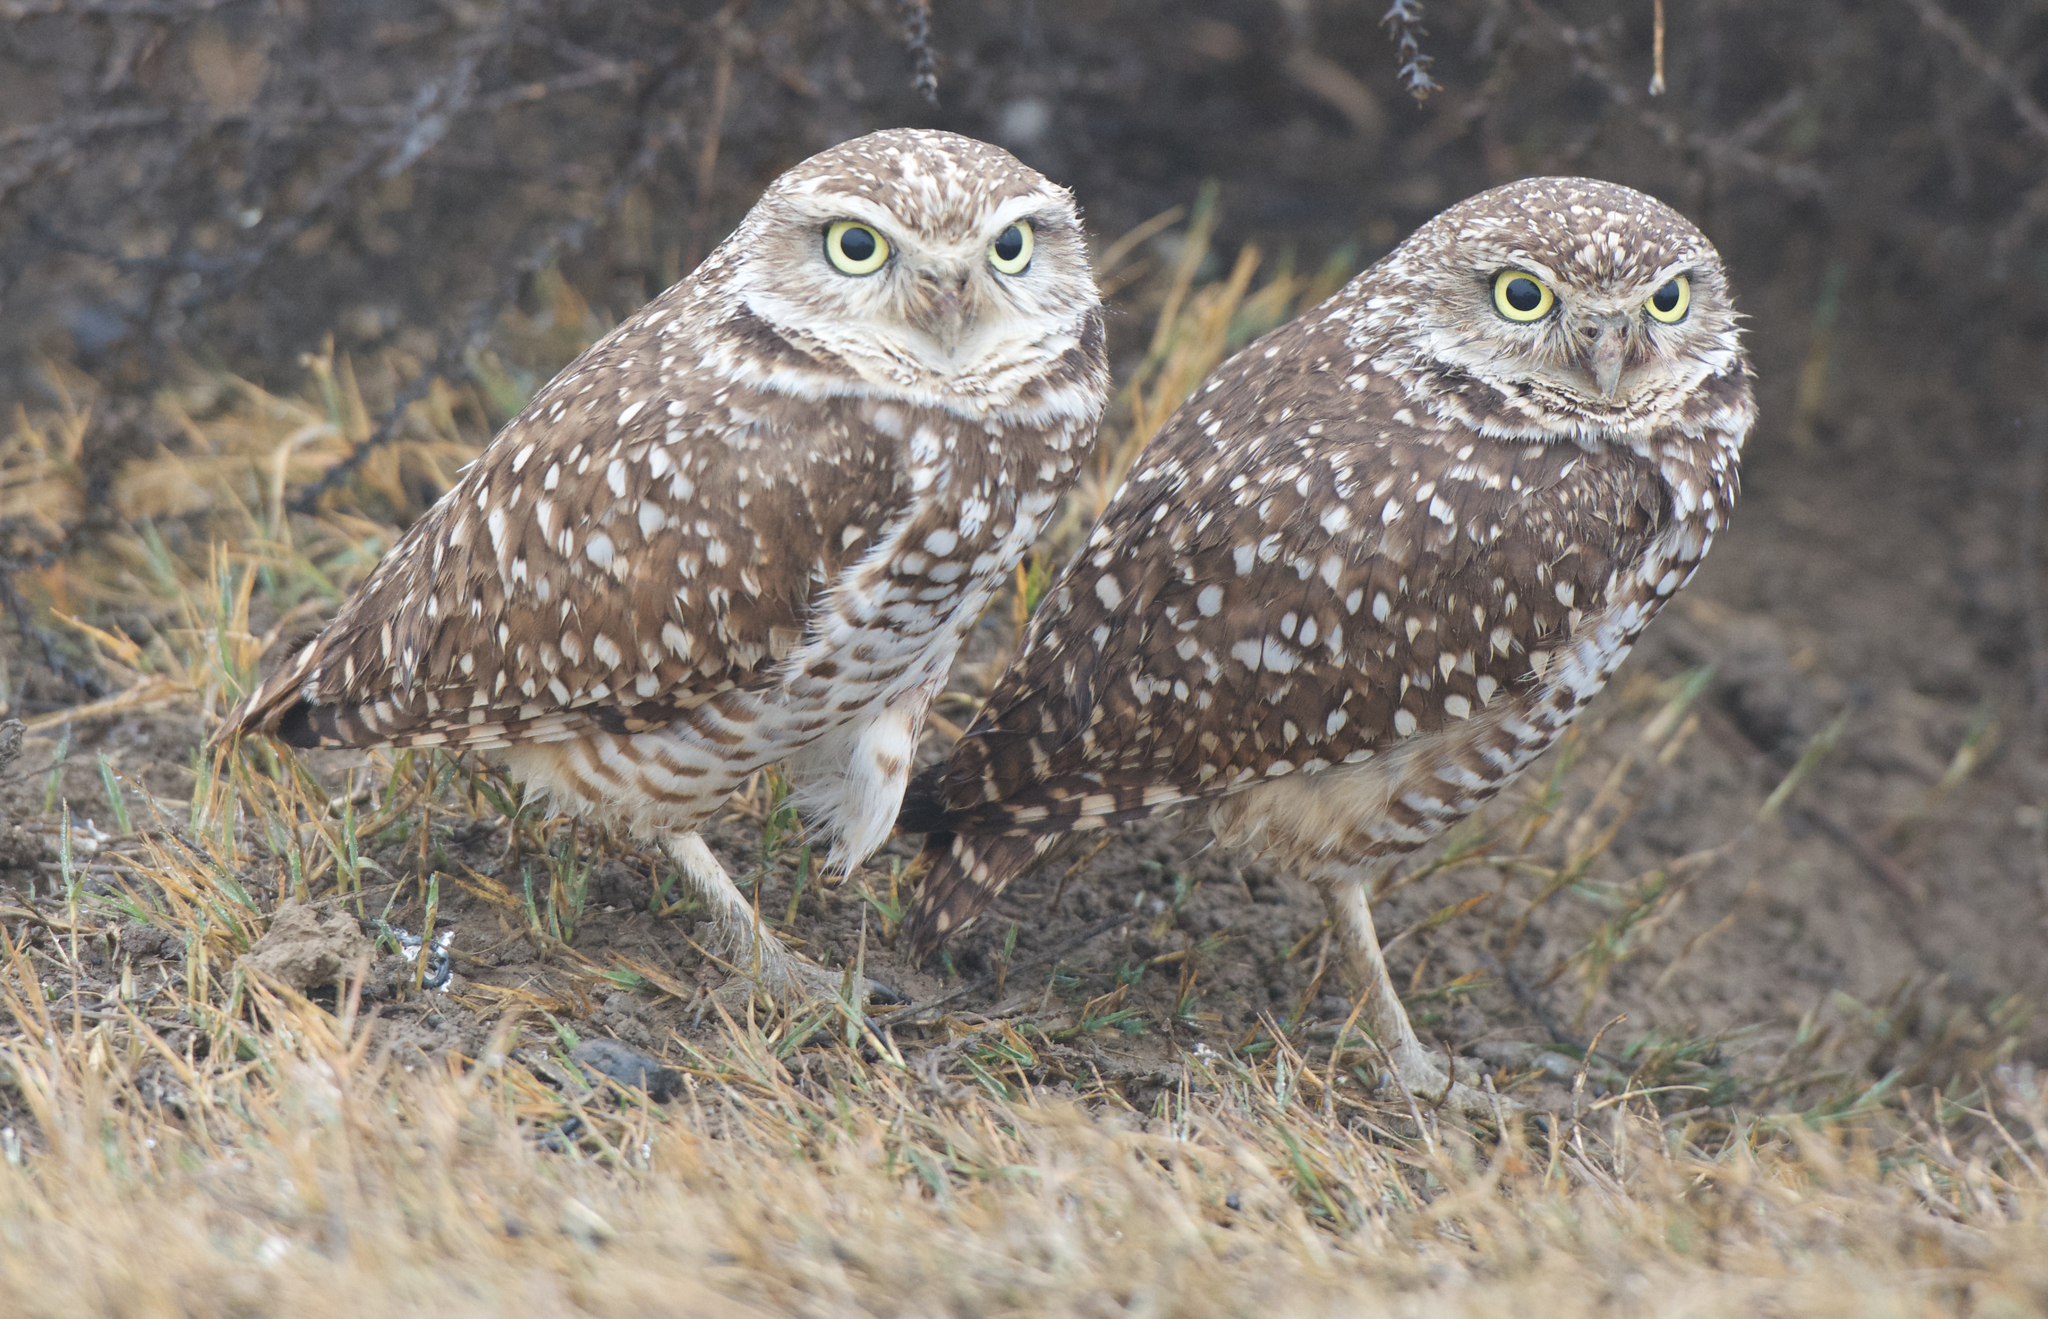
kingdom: Animalia
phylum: Chordata
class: Aves
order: Strigiformes
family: Strigidae
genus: Athene
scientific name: Athene cunicularia
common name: Burrowing owl
